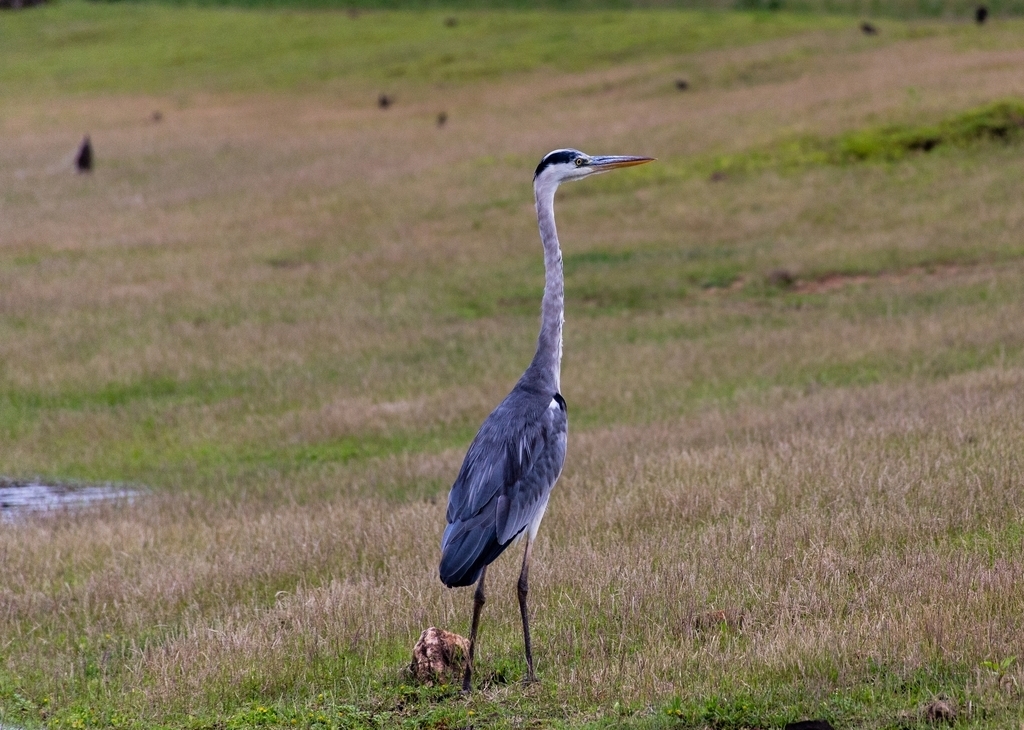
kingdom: Animalia
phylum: Chordata
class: Aves
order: Pelecaniformes
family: Ardeidae
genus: Ardea
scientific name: Ardea cinerea
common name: Grey heron
